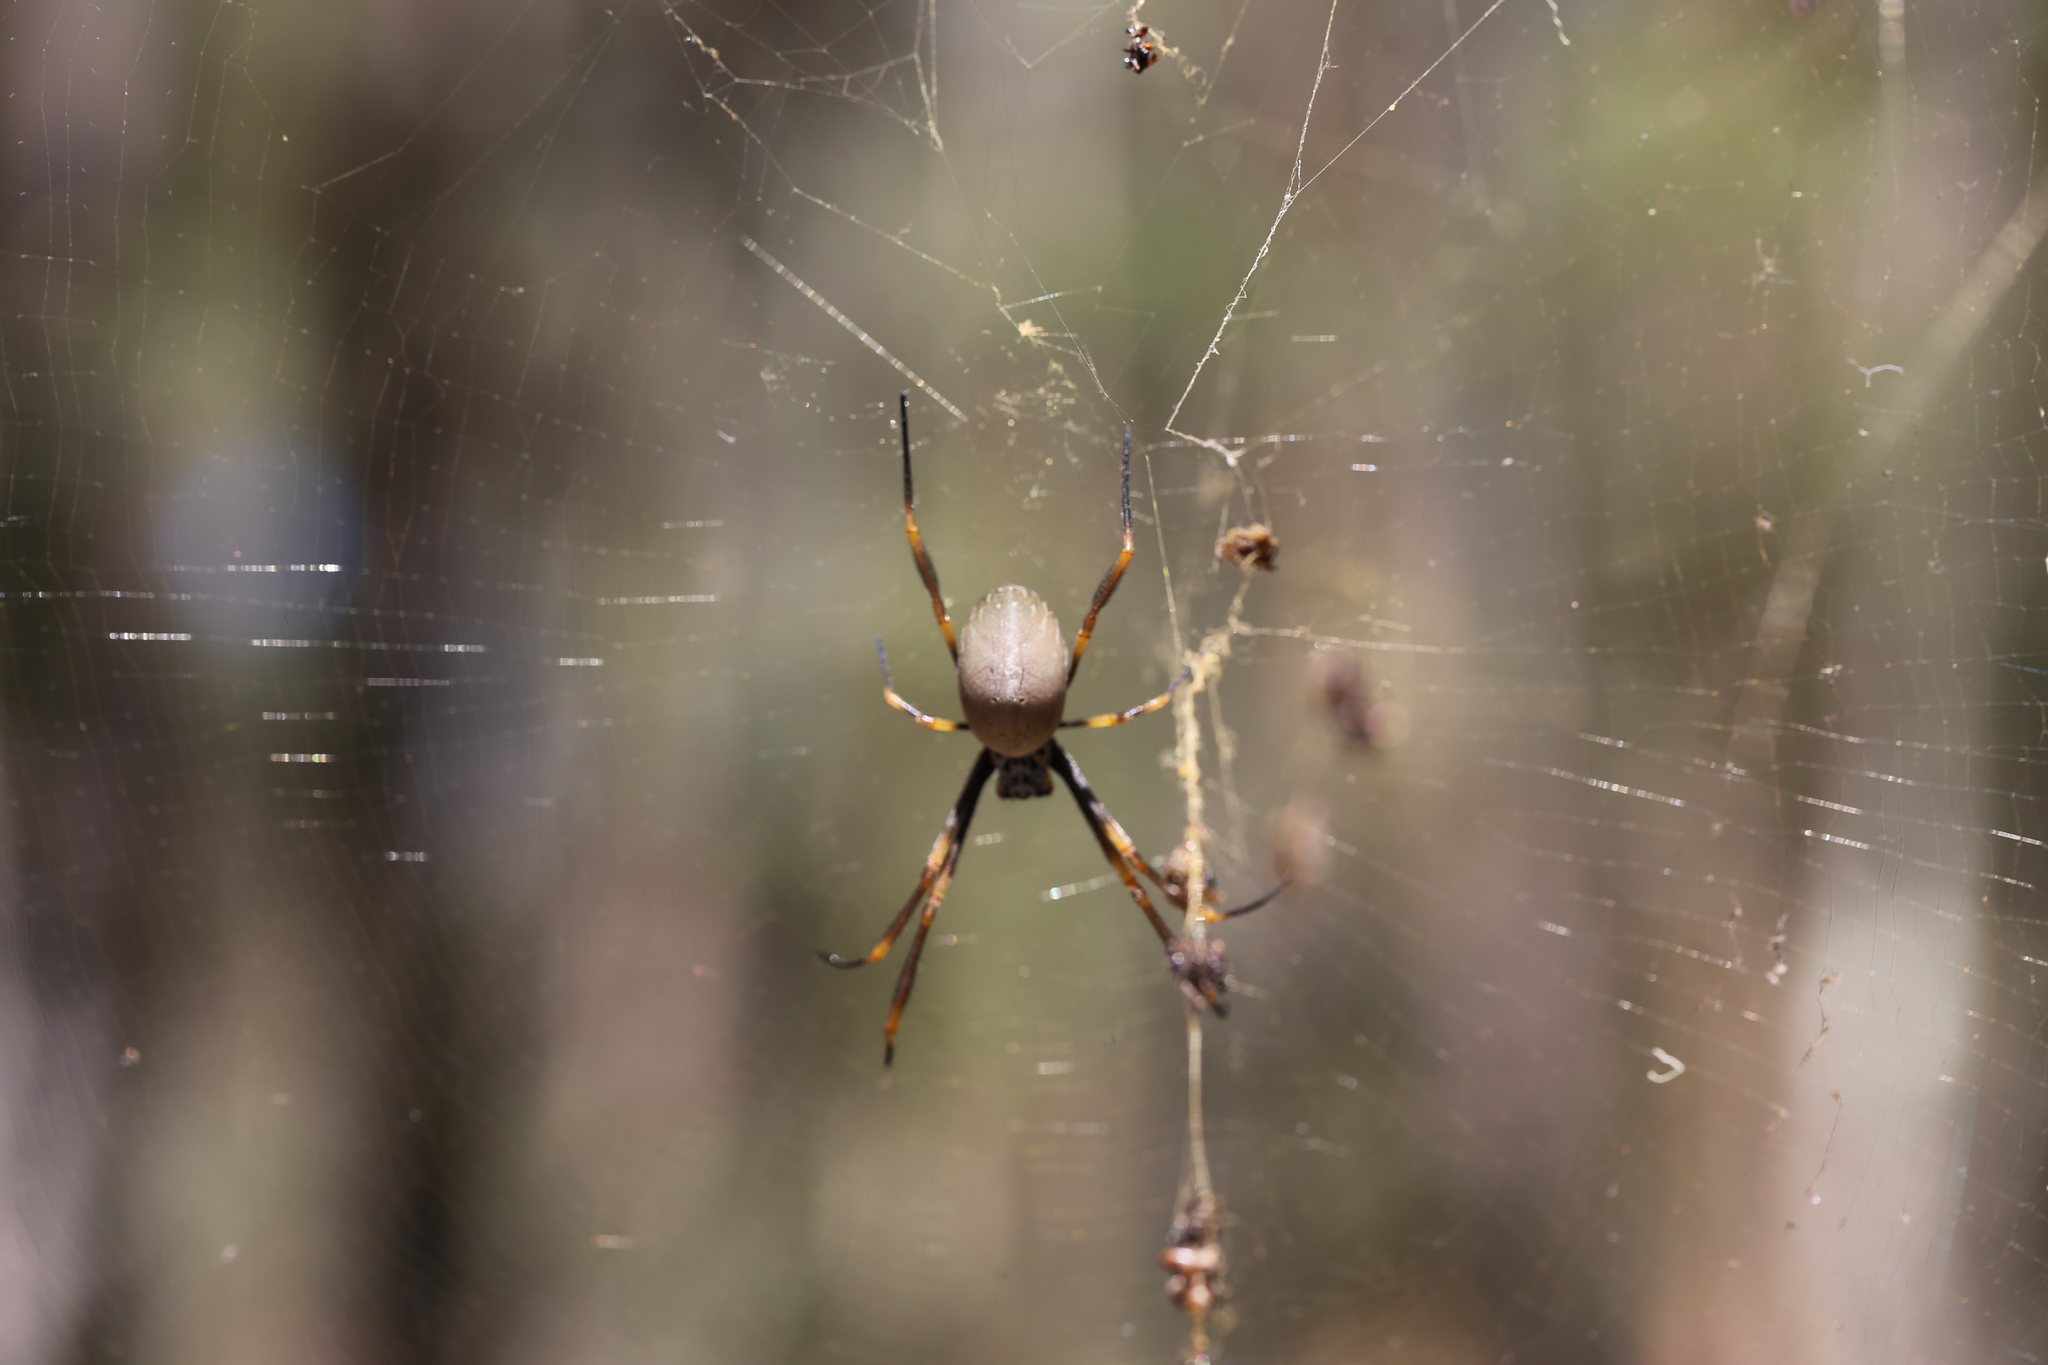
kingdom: Animalia
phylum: Arthropoda
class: Arachnida
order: Araneae
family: Araneidae
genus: Trichonephila
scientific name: Trichonephila plumipes
